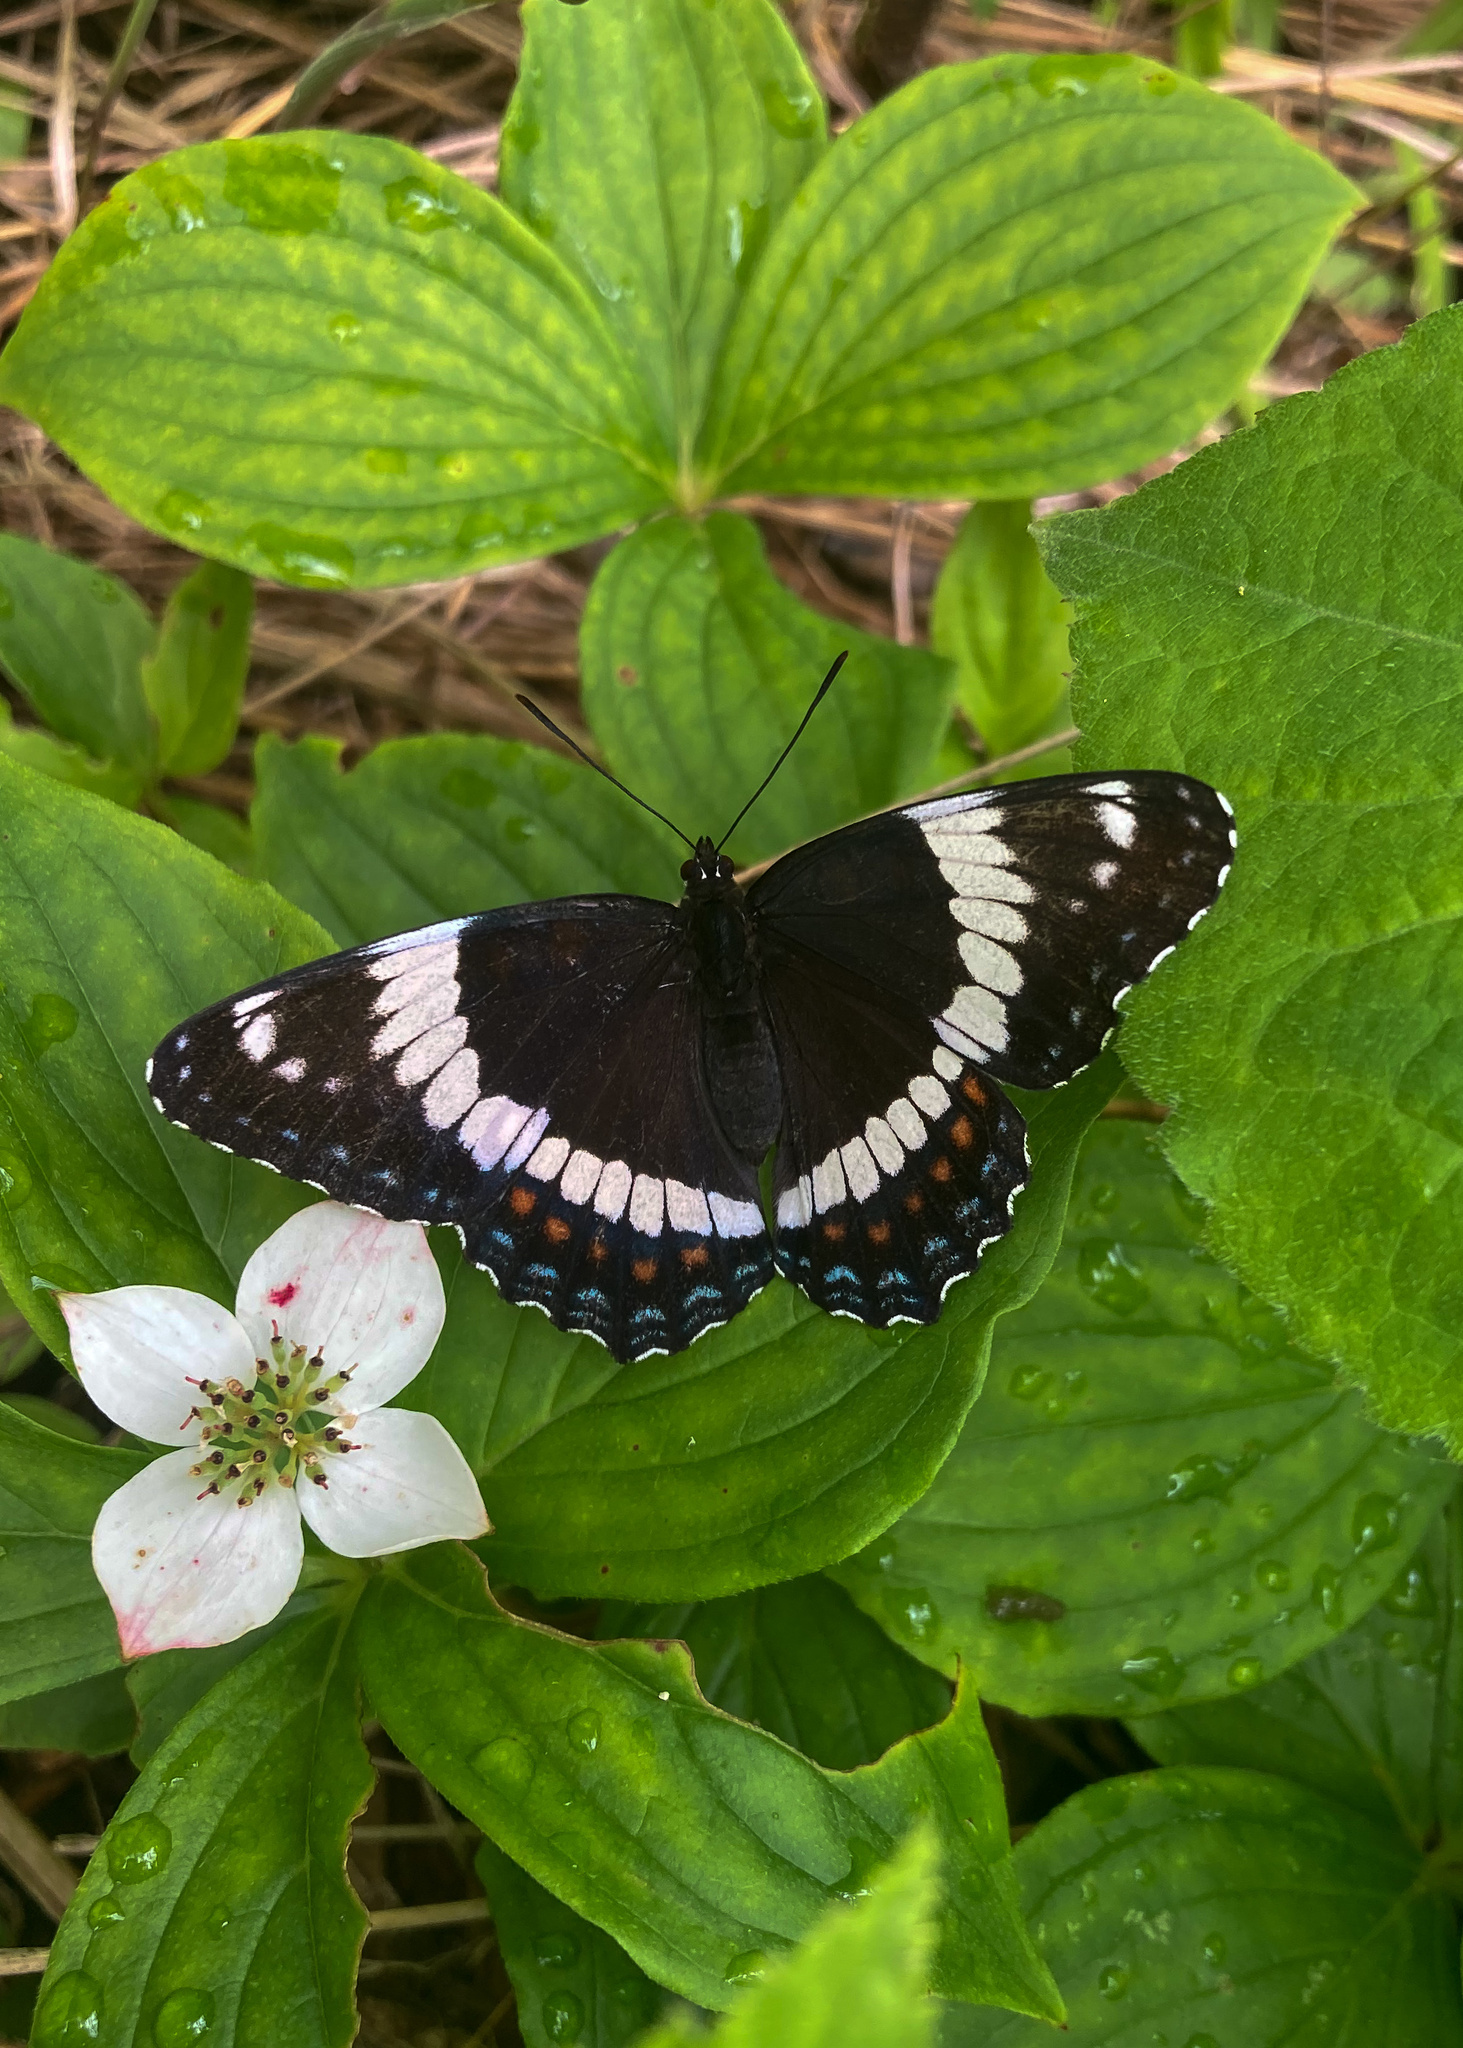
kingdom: Animalia
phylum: Arthropoda
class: Insecta
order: Lepidoptera
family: Nymphalidae
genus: Limenitis
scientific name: Limenitis arthemis
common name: Red-spotted admiral
